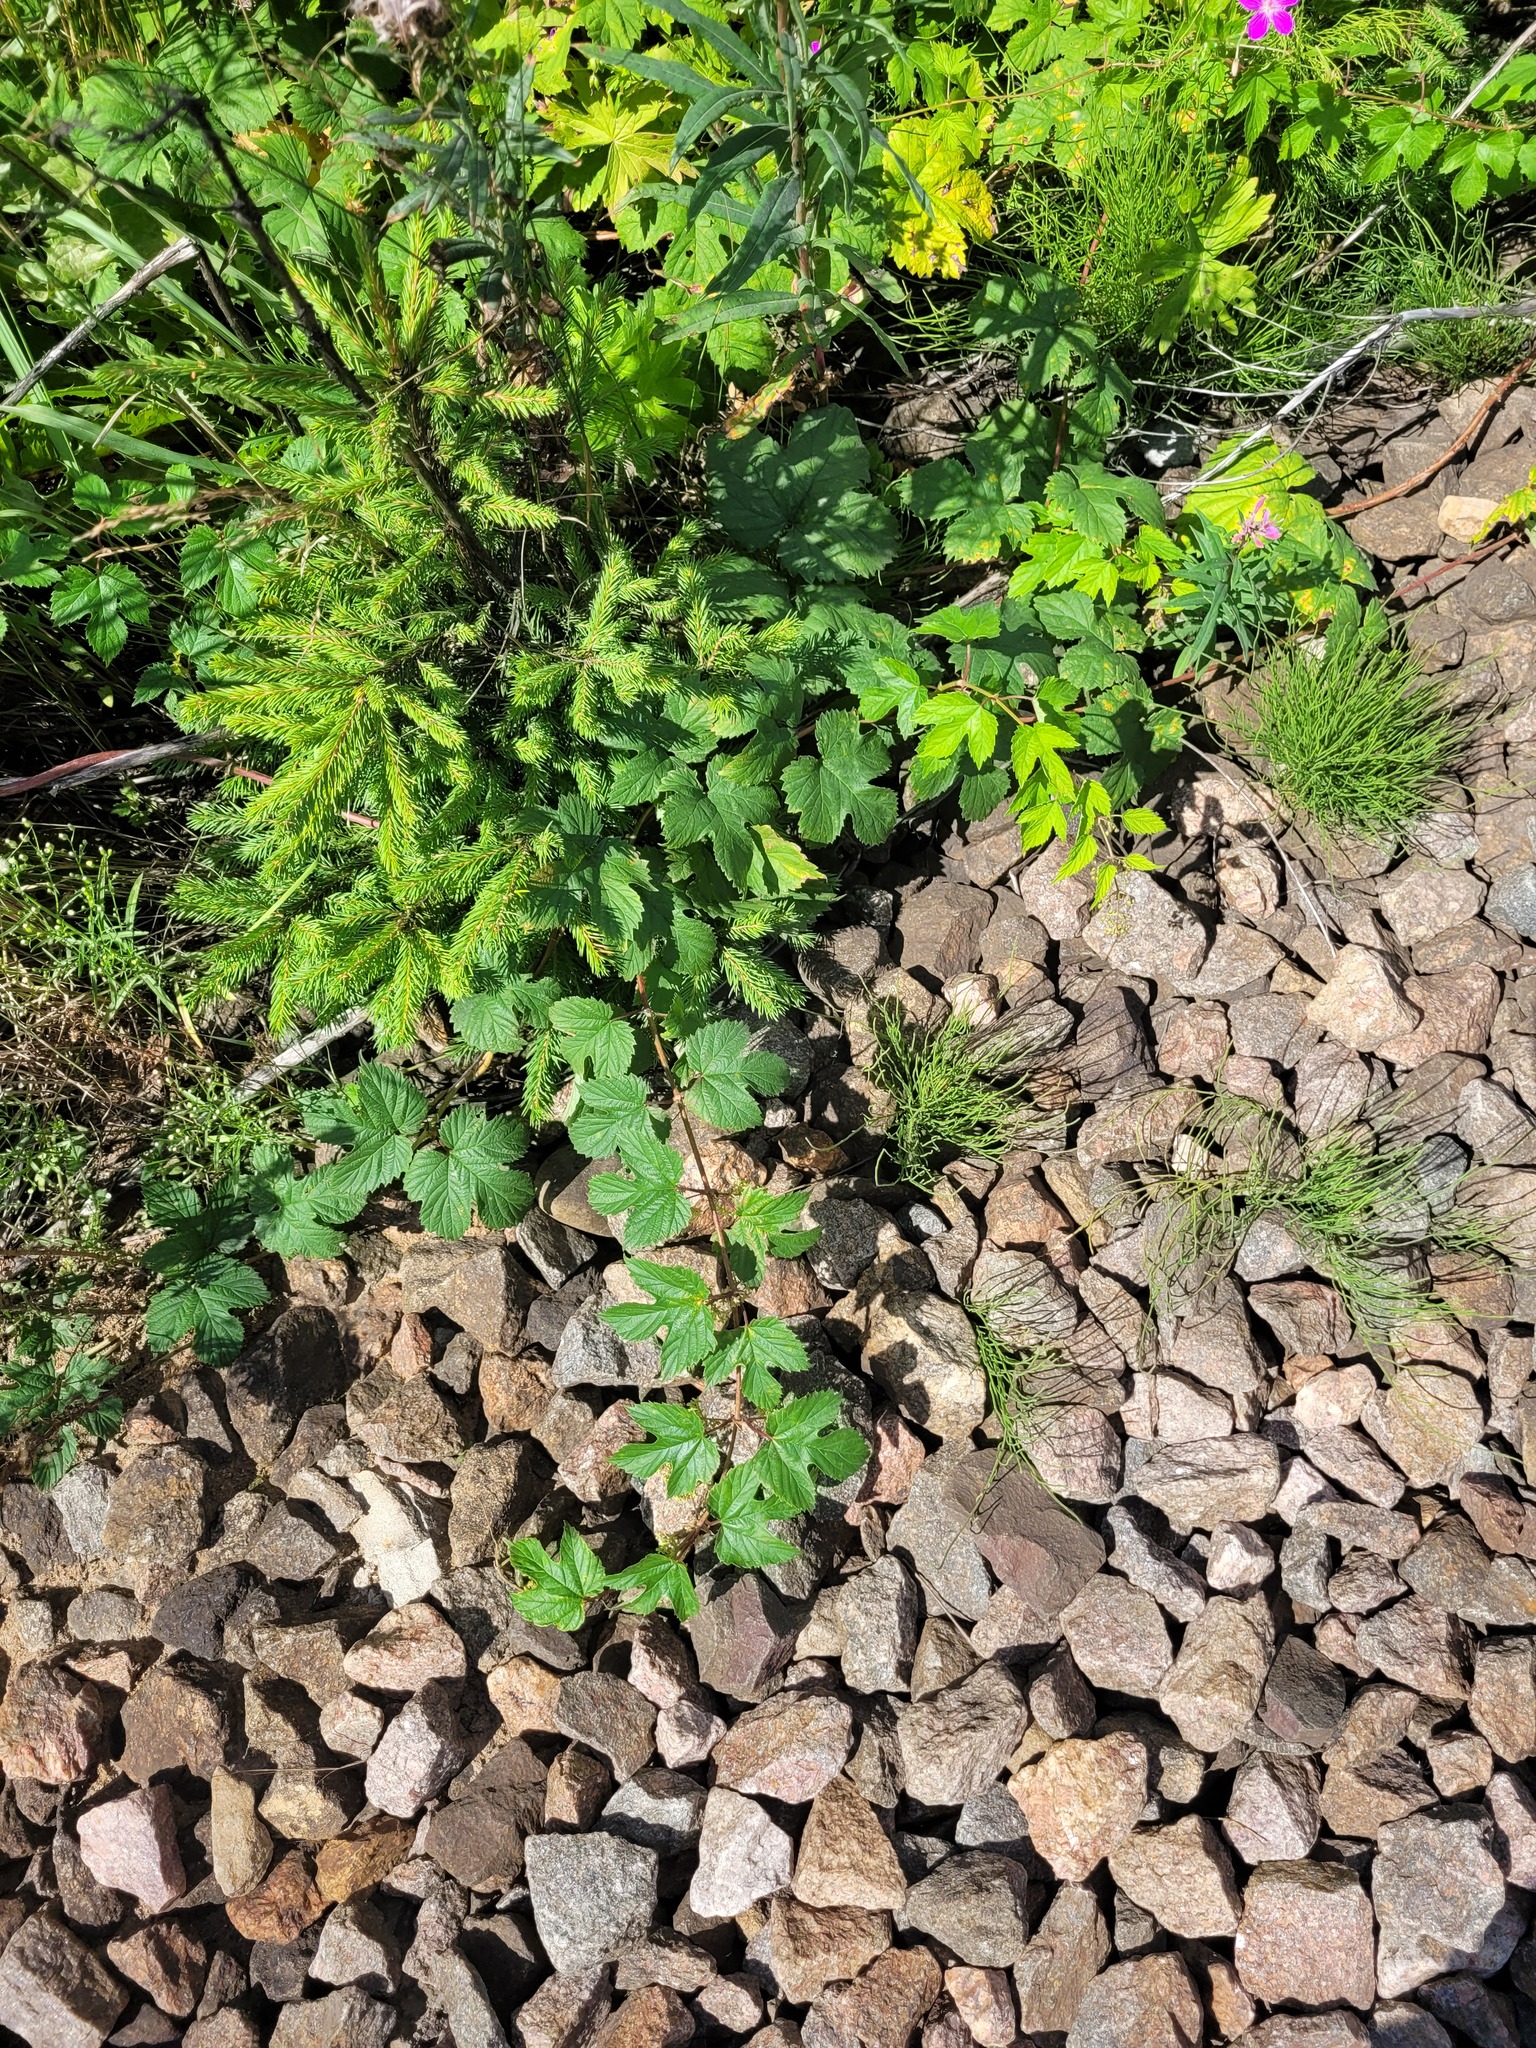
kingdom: Plantae
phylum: Tracheophyta
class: Magnoliopsida
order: Rosales
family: Cannabaceae
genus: Humulus
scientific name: Humulus lupulus
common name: Hop
